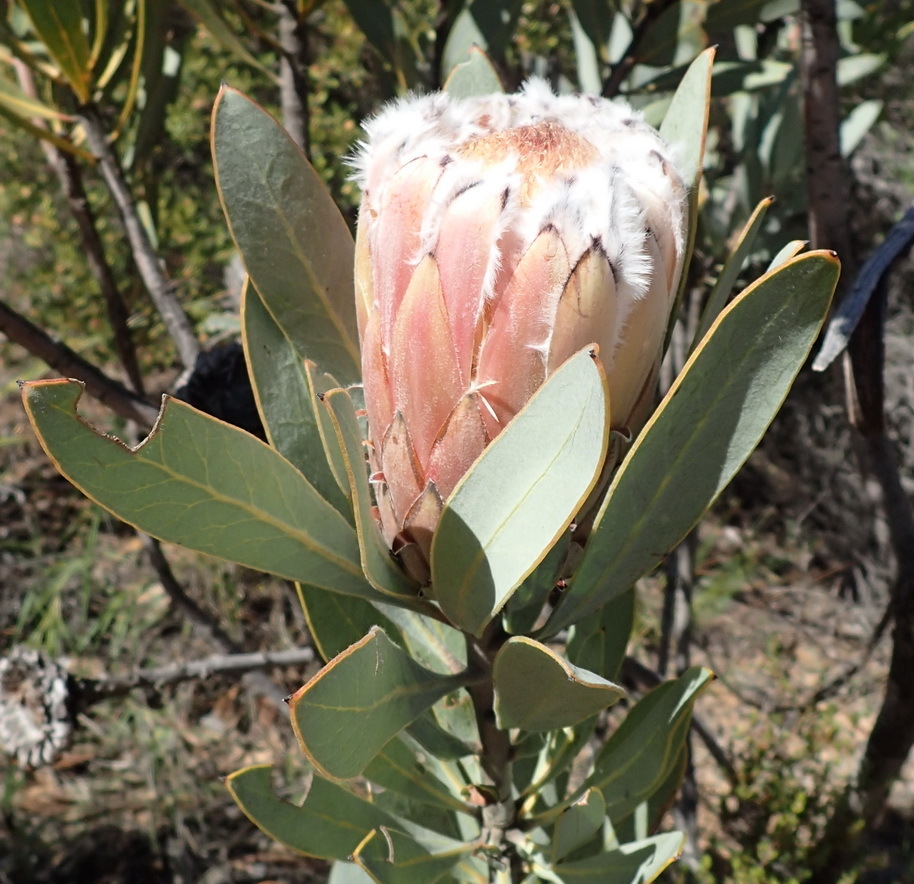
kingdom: Plantae
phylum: Tracheophyta
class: Magnoliopsida
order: Proteales
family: Proteaceae
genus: Protea
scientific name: Protea laurifolia
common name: Grey-leaf sugarbsh
